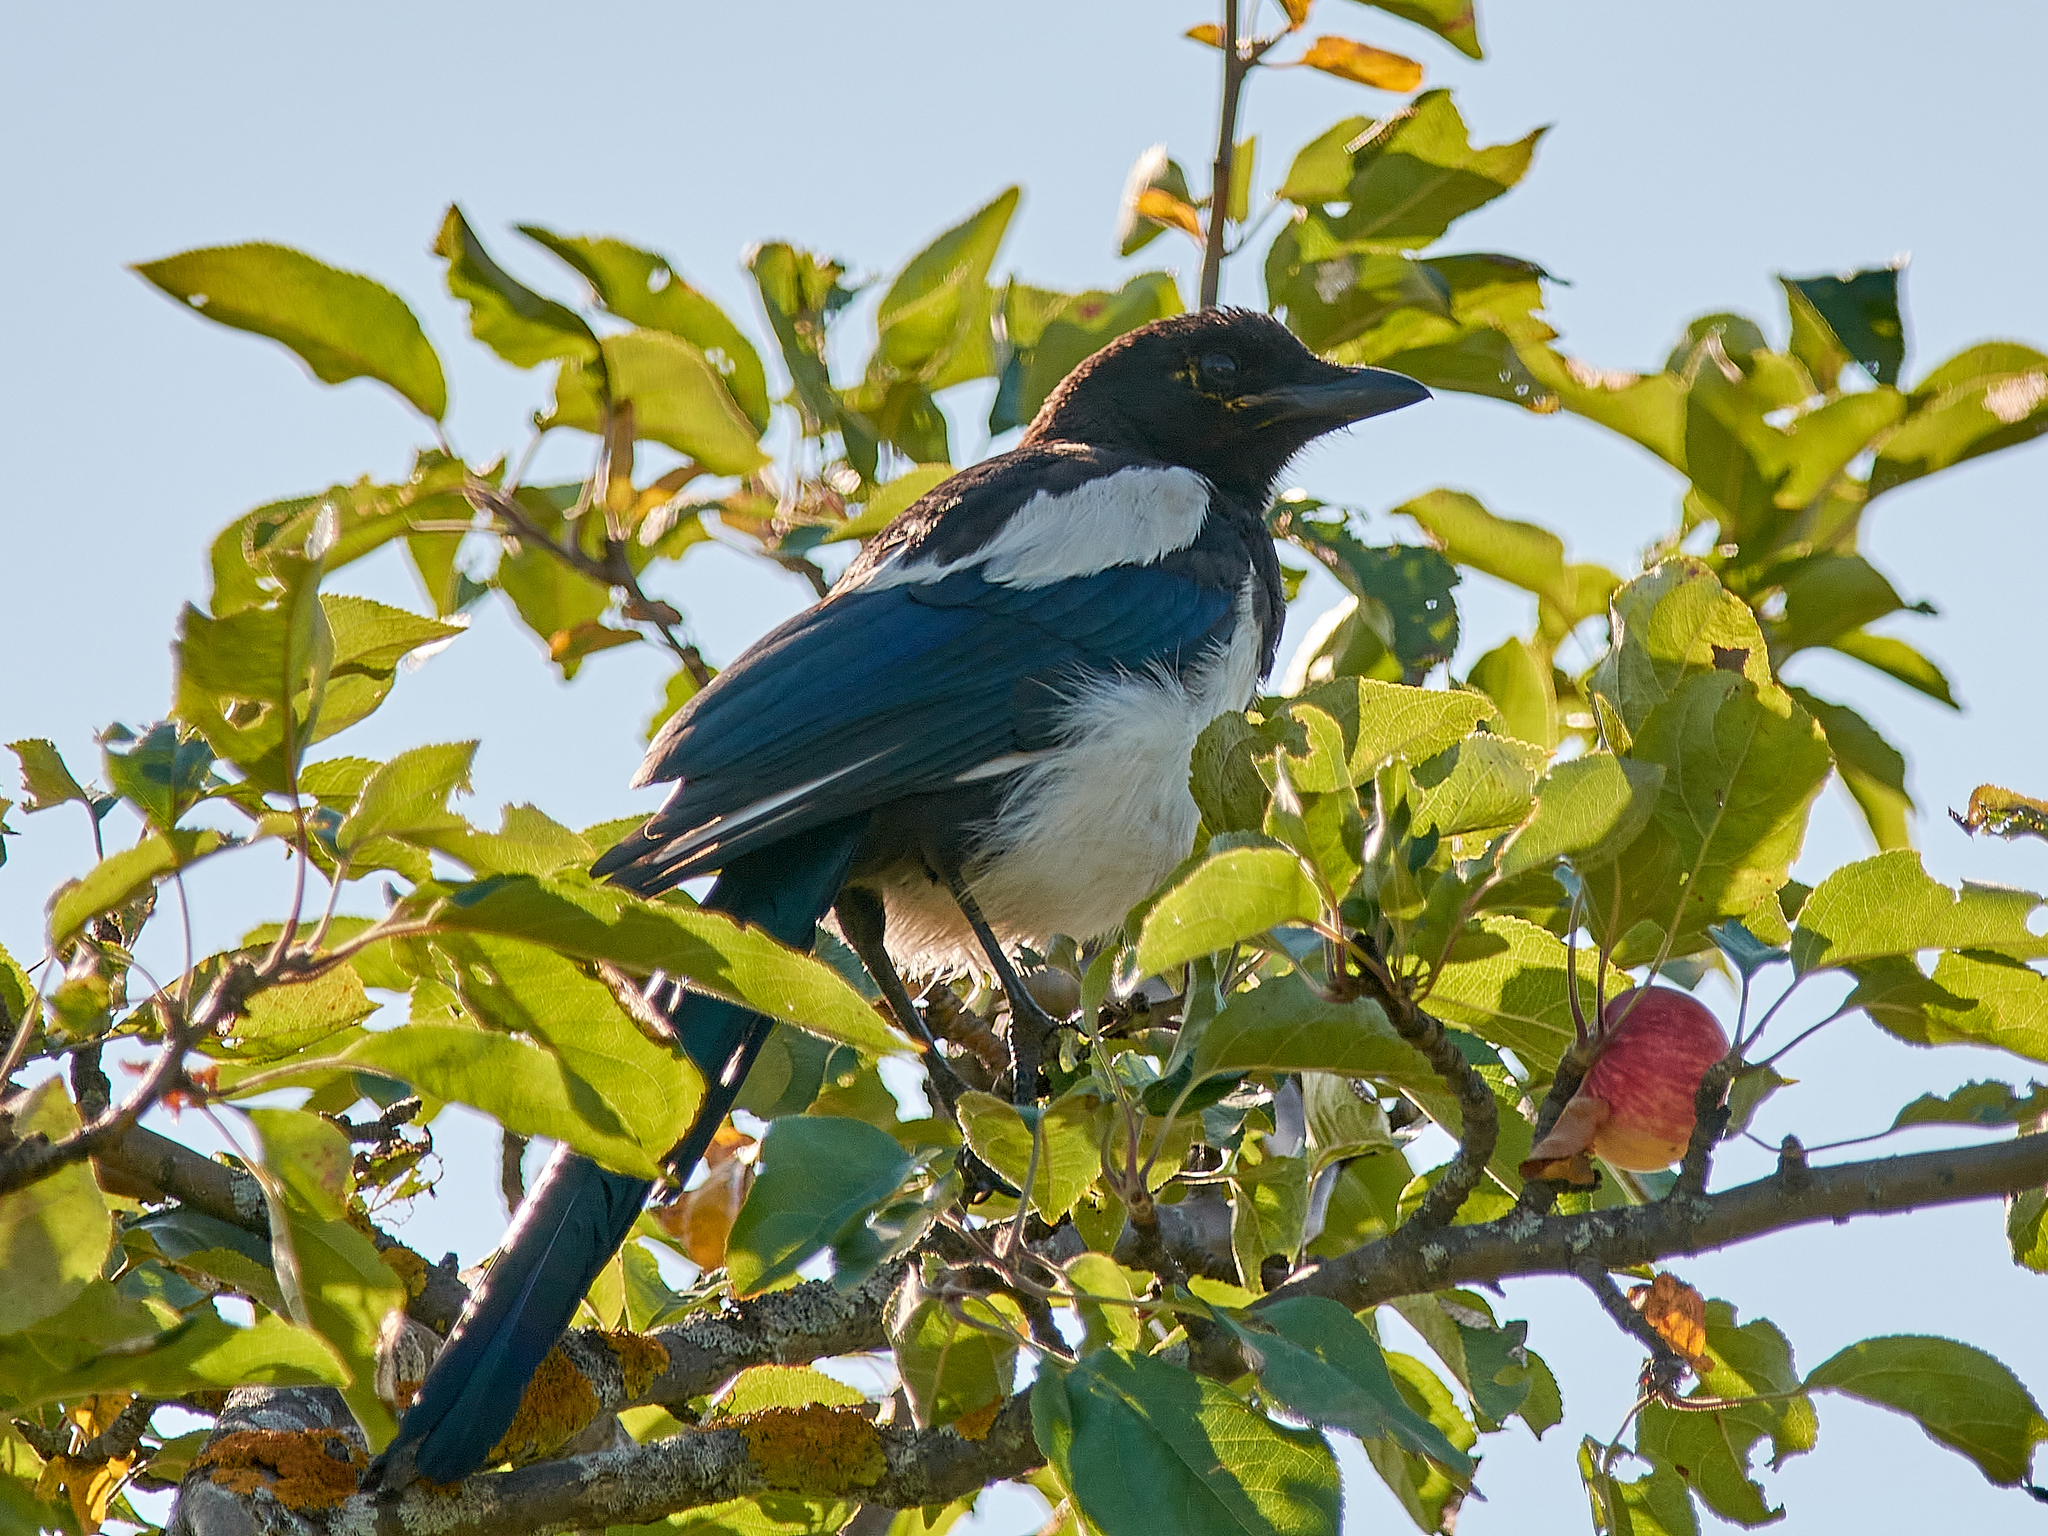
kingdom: Animalia
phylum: Chordata
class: Aves
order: Passeriformes
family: Corvidae
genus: Pica
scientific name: Pica pica
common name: Eurasian magpie
